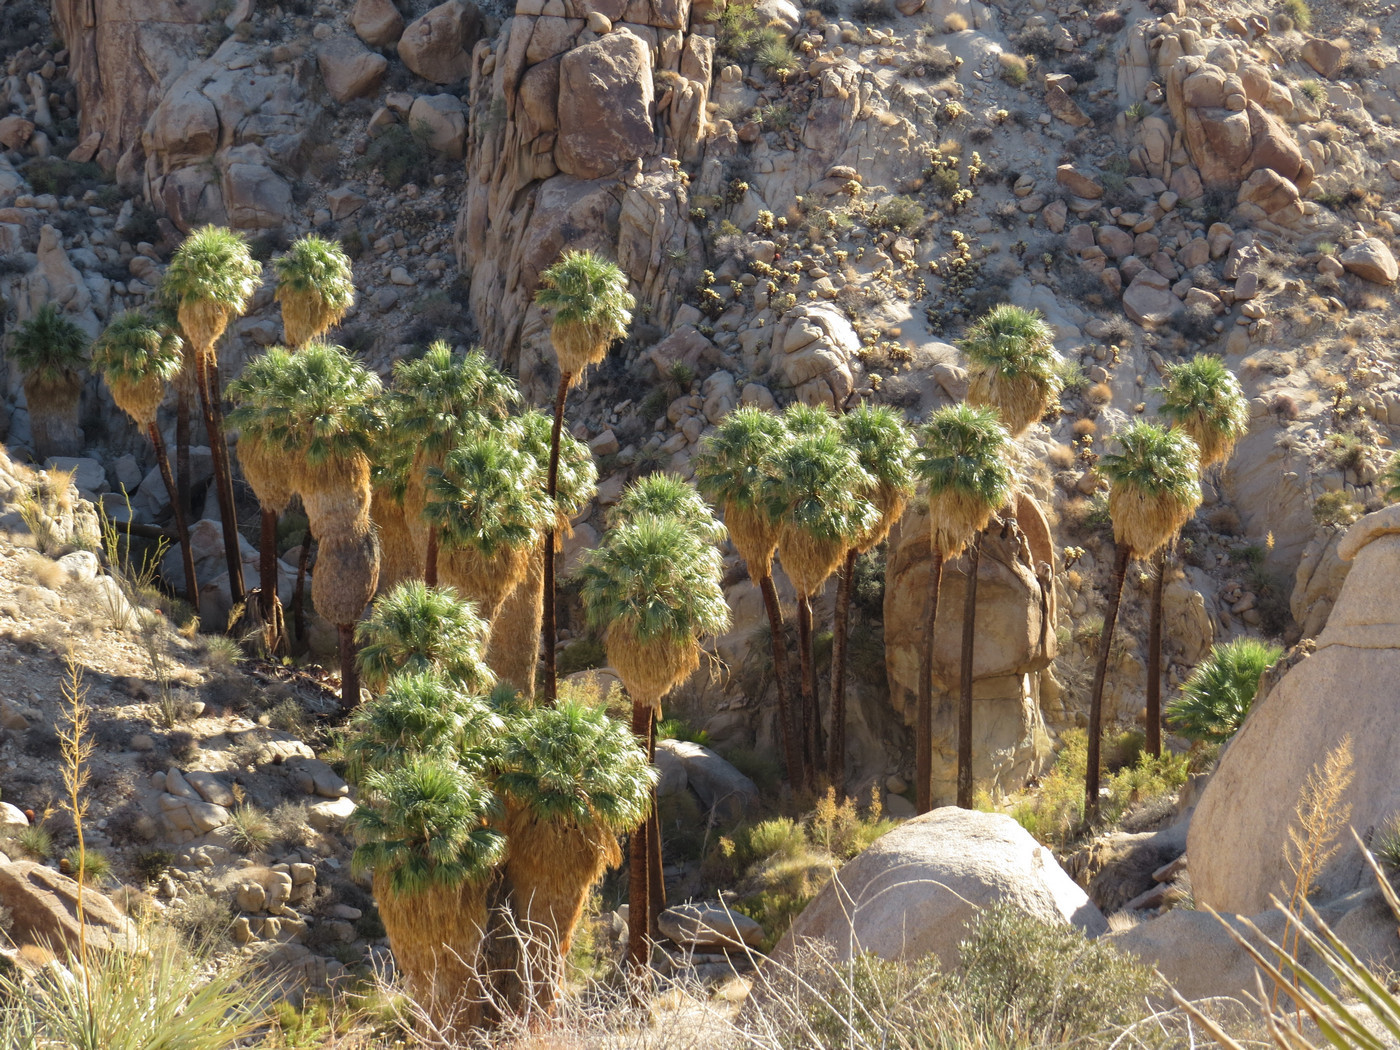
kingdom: Plantae
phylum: Tracheophyta
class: Liliopsida
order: Arecales
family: Arecaceae
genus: Washingtonia
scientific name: Washingtonia filifera
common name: California fan palm
